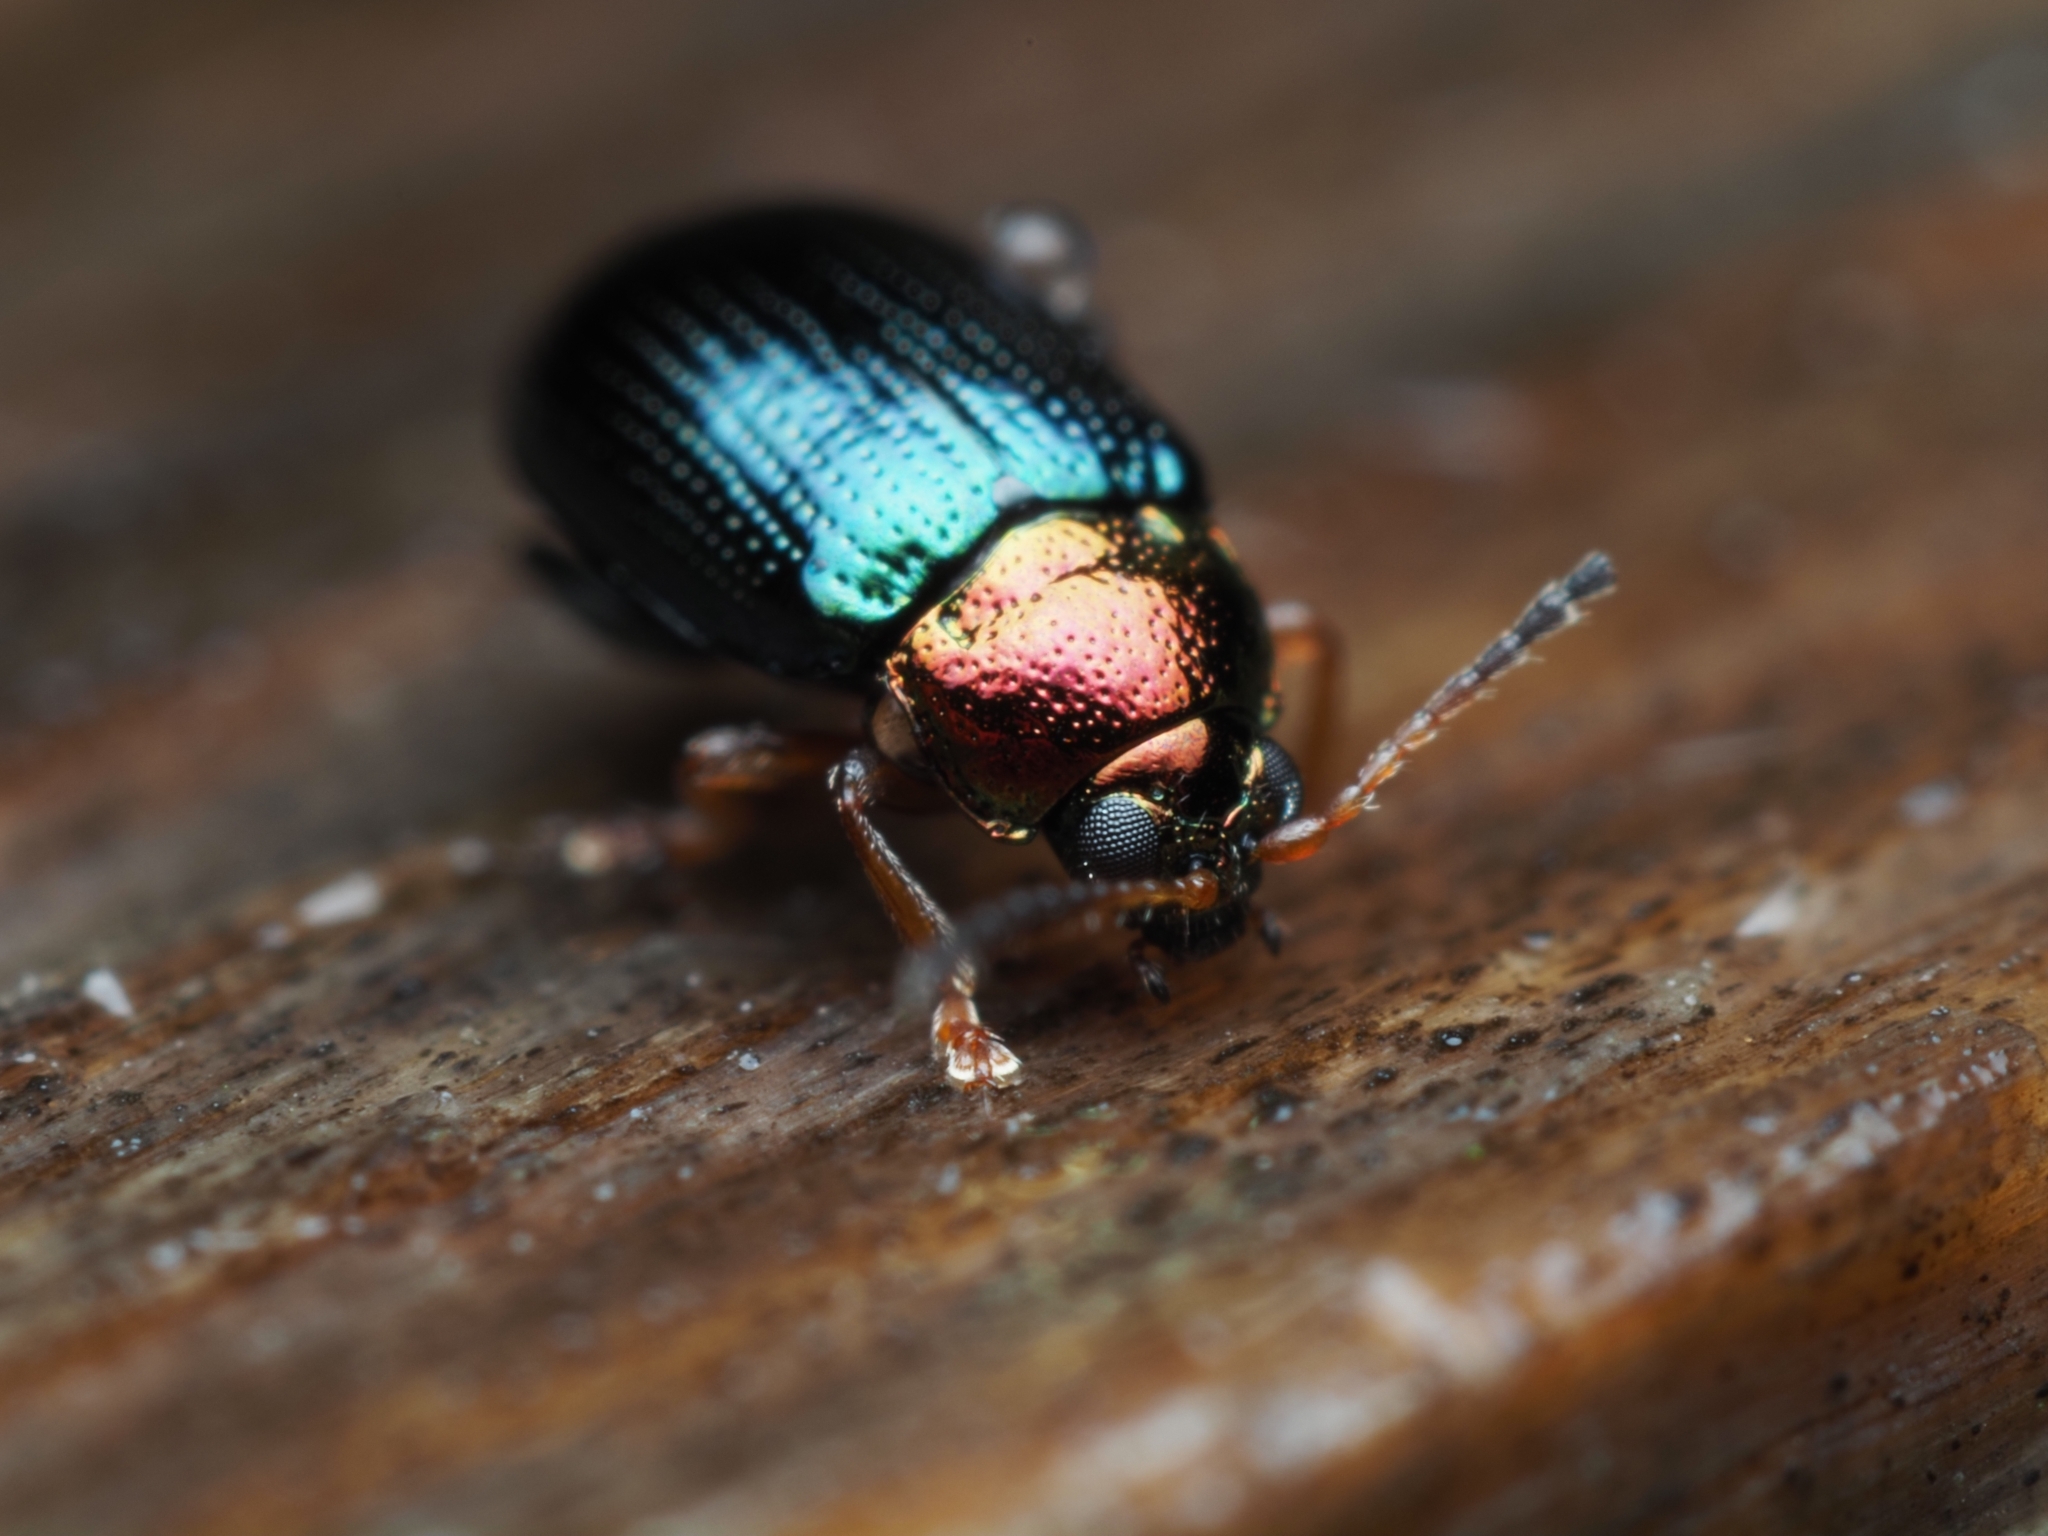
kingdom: Animalia
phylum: Arthropoda
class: Insecta
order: Coleoptera
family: Chrysomelidae
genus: Crepidodera
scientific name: Crepidodera aurata
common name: Willow flea beetle
